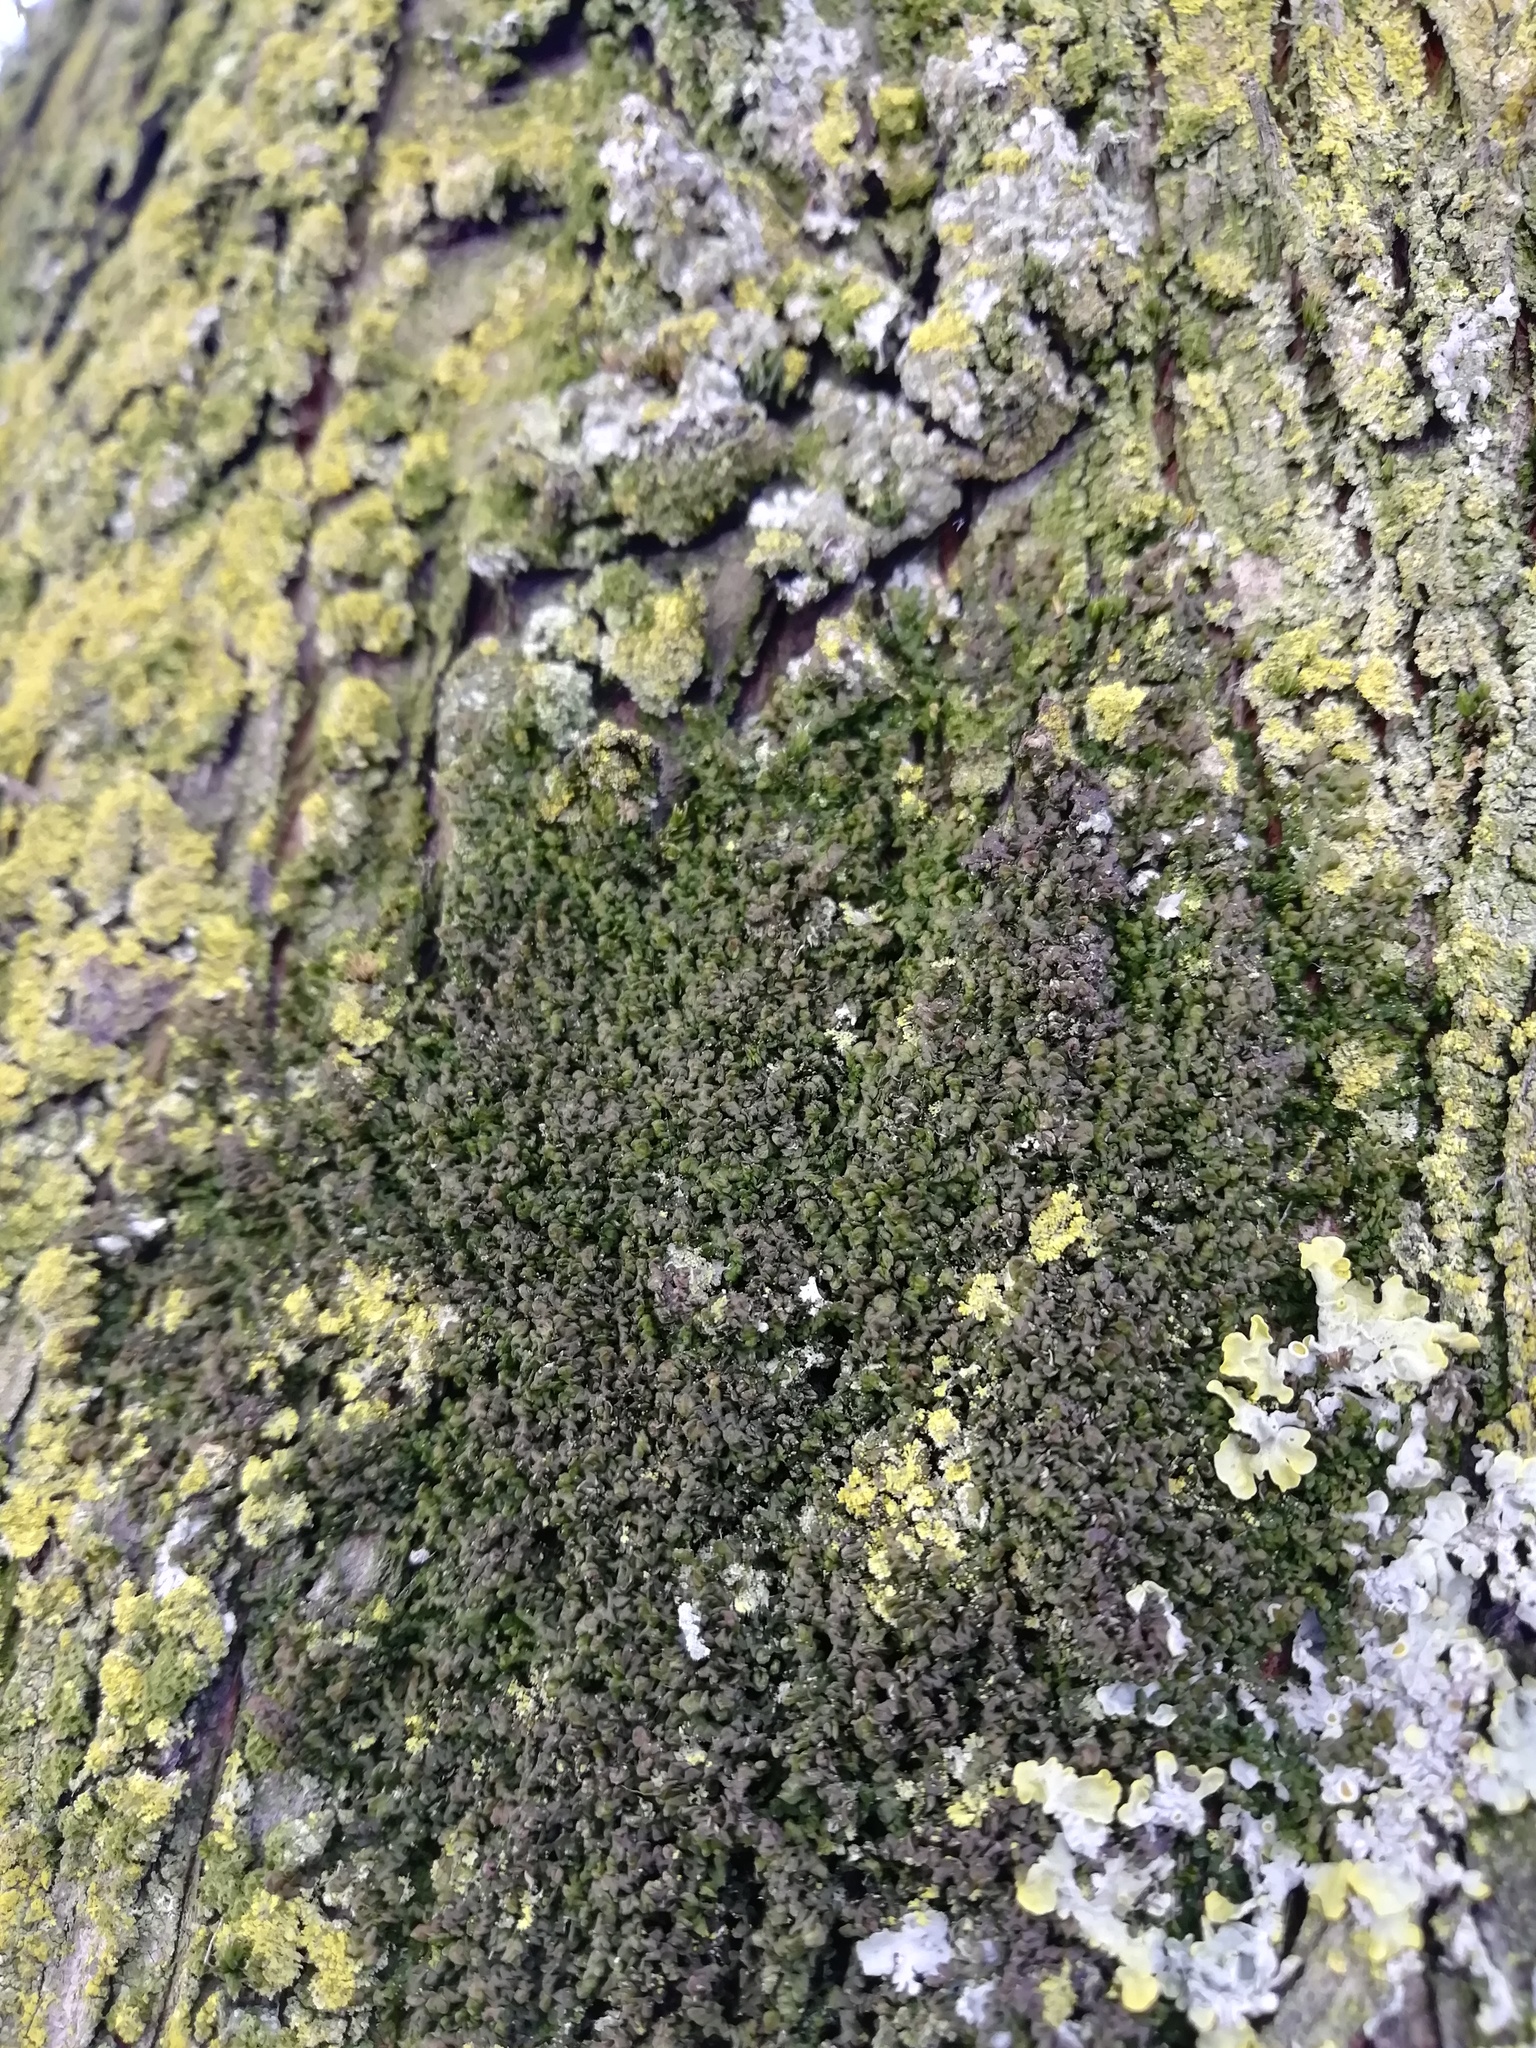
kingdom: Plantae
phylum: Marchantiophyta
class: Jungermanniopsida
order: Porellales
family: Frullaniaceae
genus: Frullania
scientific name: Frullania dilatata
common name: Dilated scalewort
